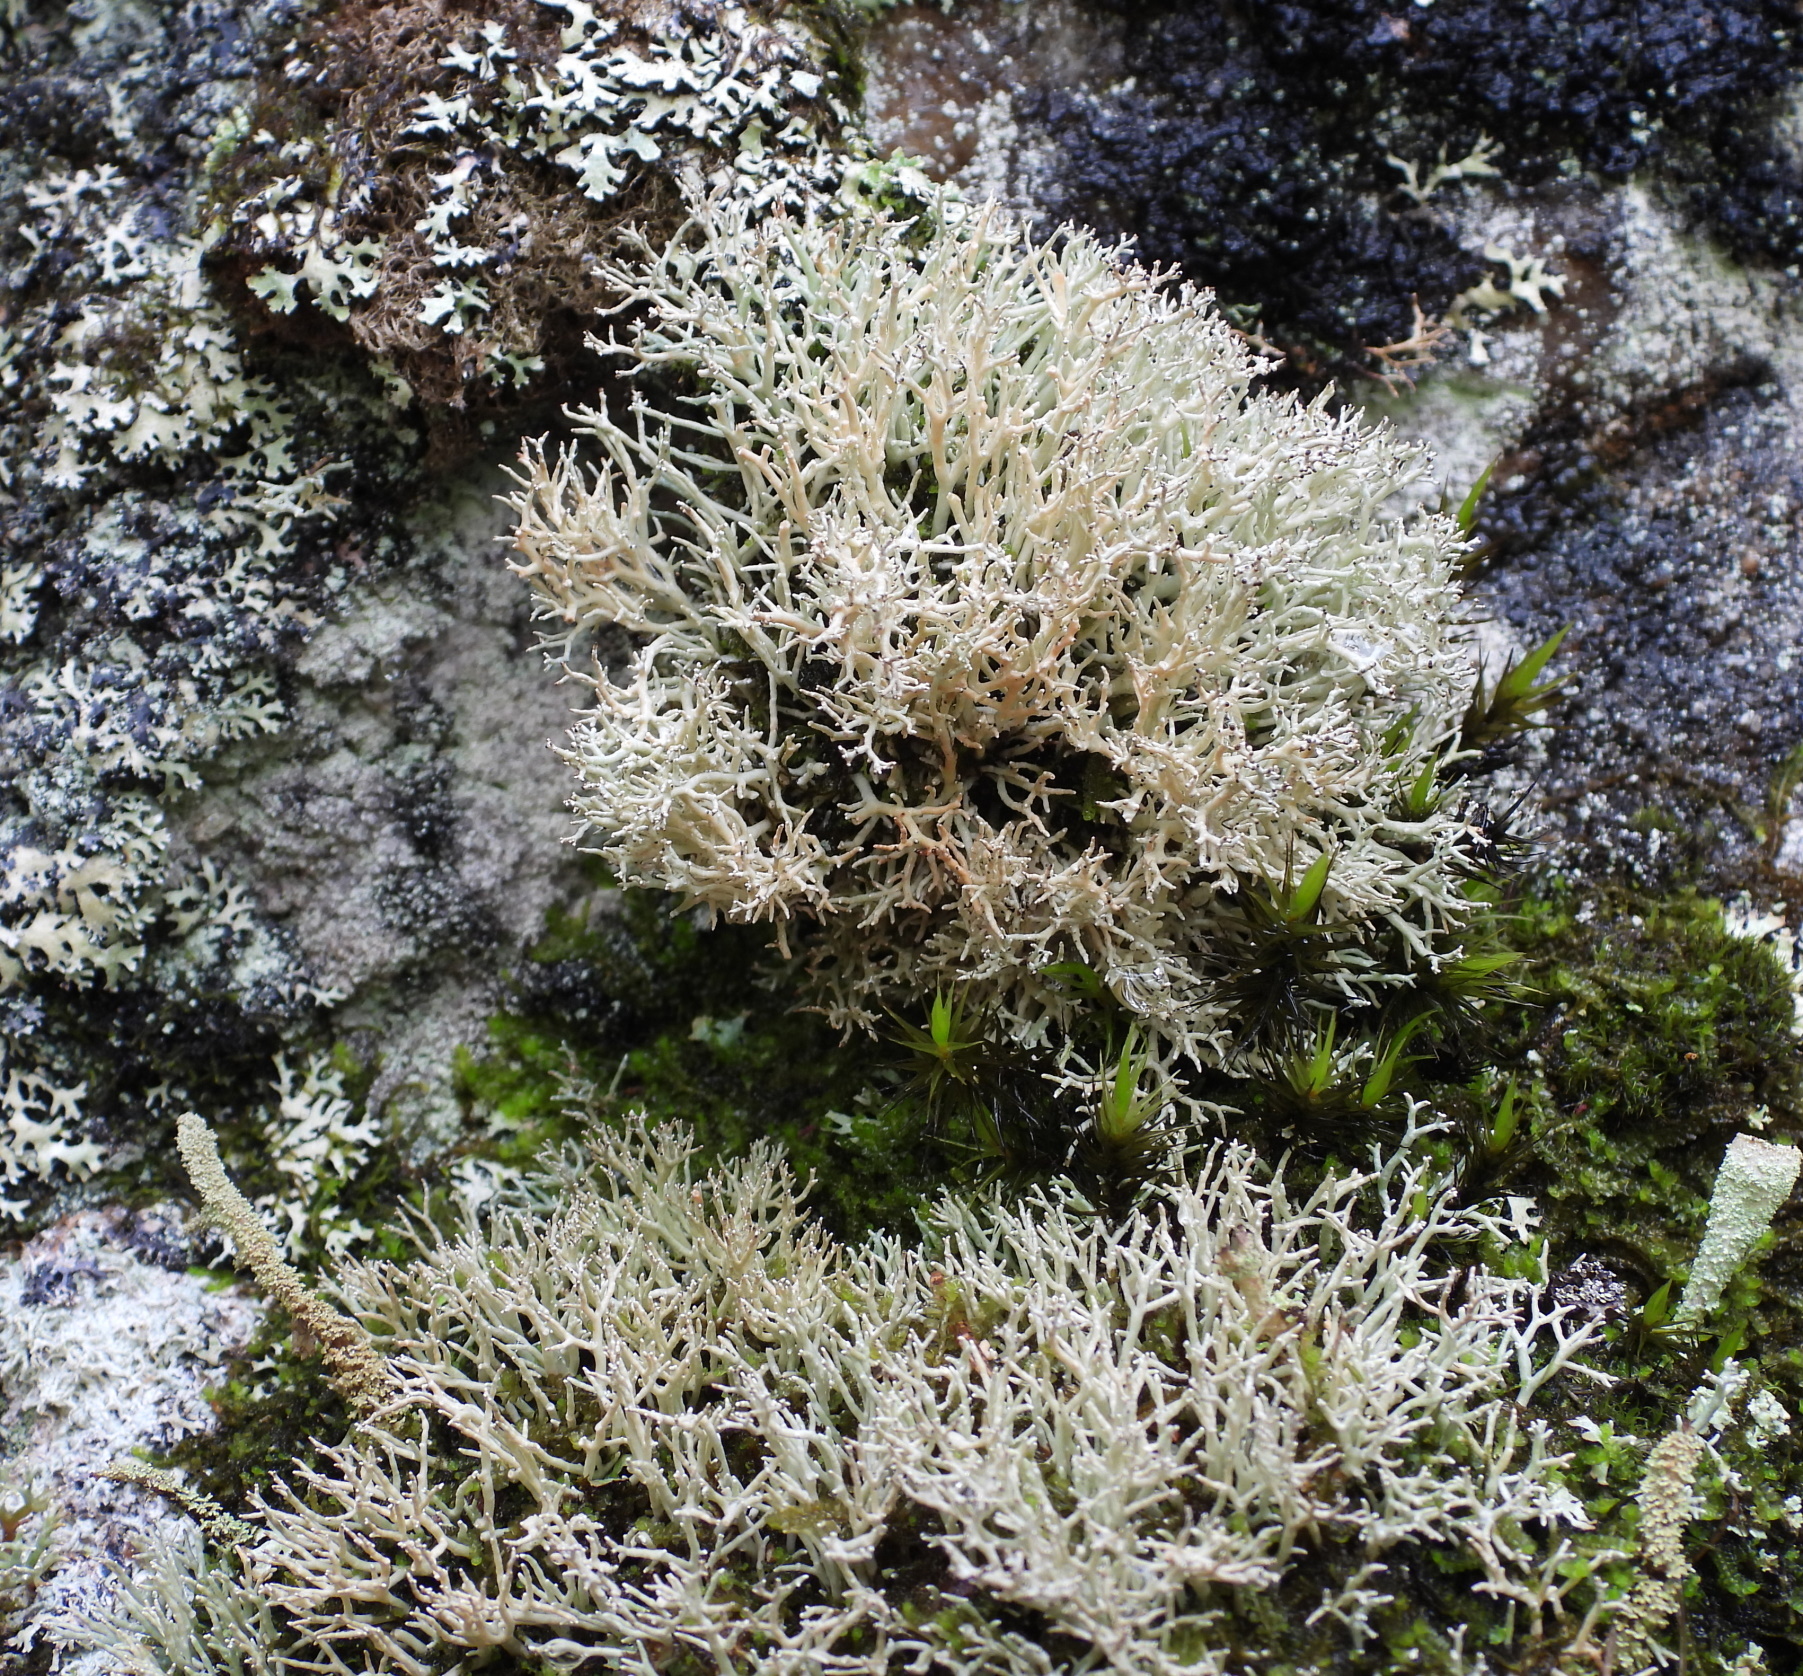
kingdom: Fungi
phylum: Ascomycota
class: Lecanoromycetes
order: Lecanorales
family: Sphaerophoraceae
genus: Sphaerophorus
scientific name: Sphaerophorus fragilis
